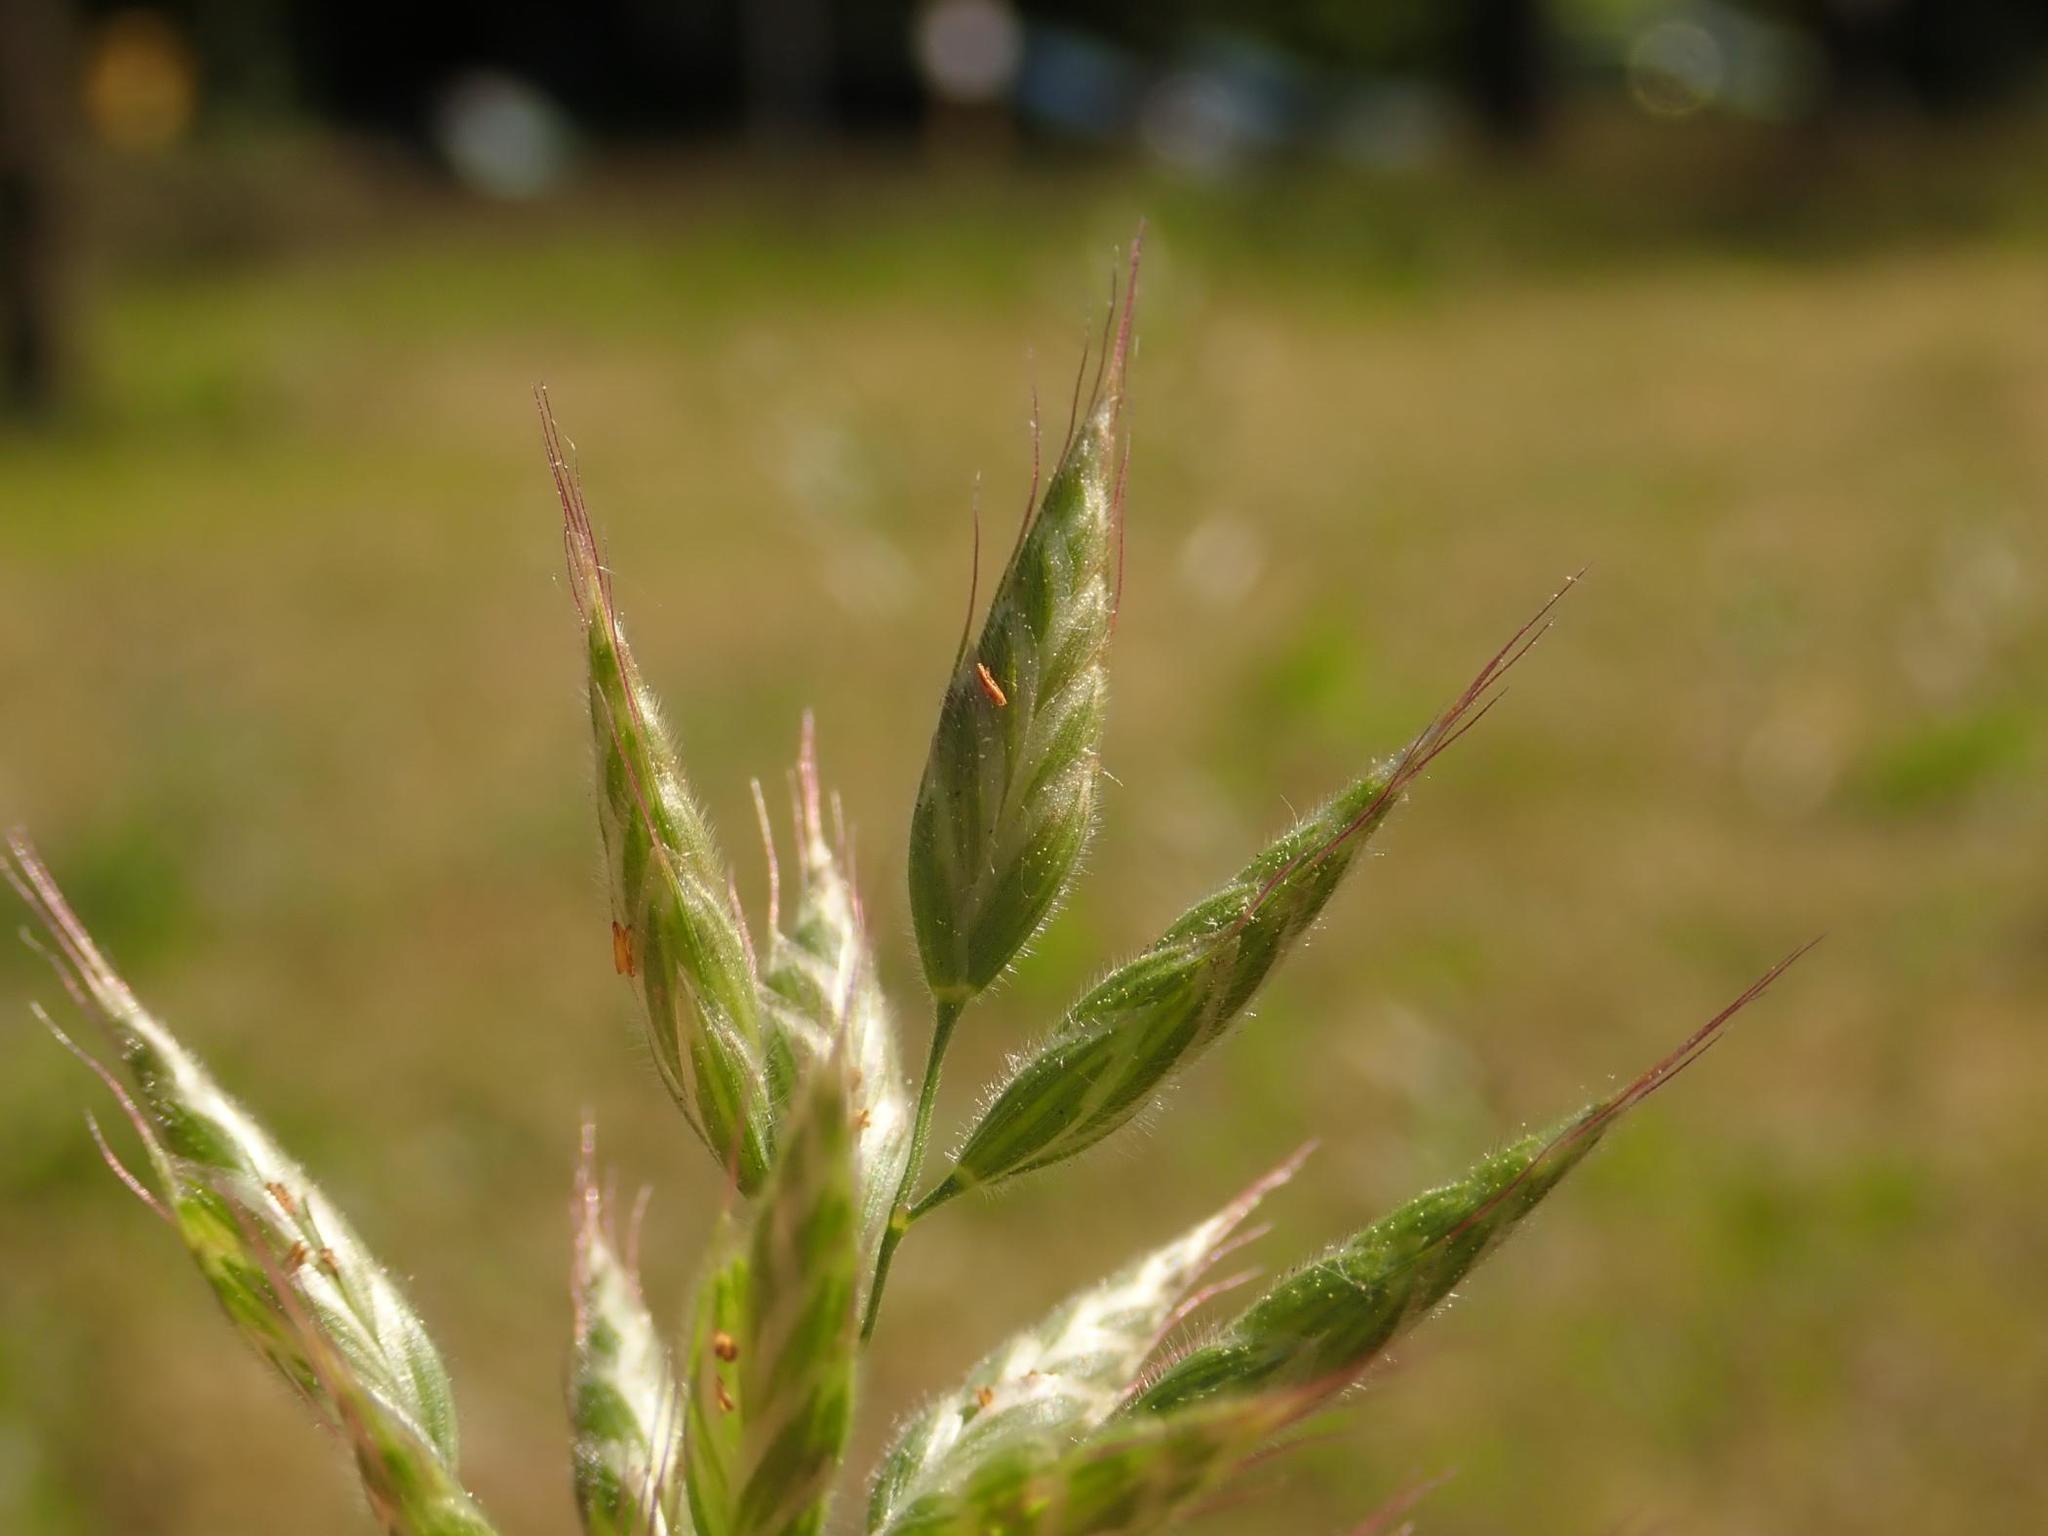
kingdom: Plantae
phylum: Tracheophyta
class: Liliopsida
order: Poales
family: Poaceae
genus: Bromus
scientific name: Bromus hordeaceus
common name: Soft brome
